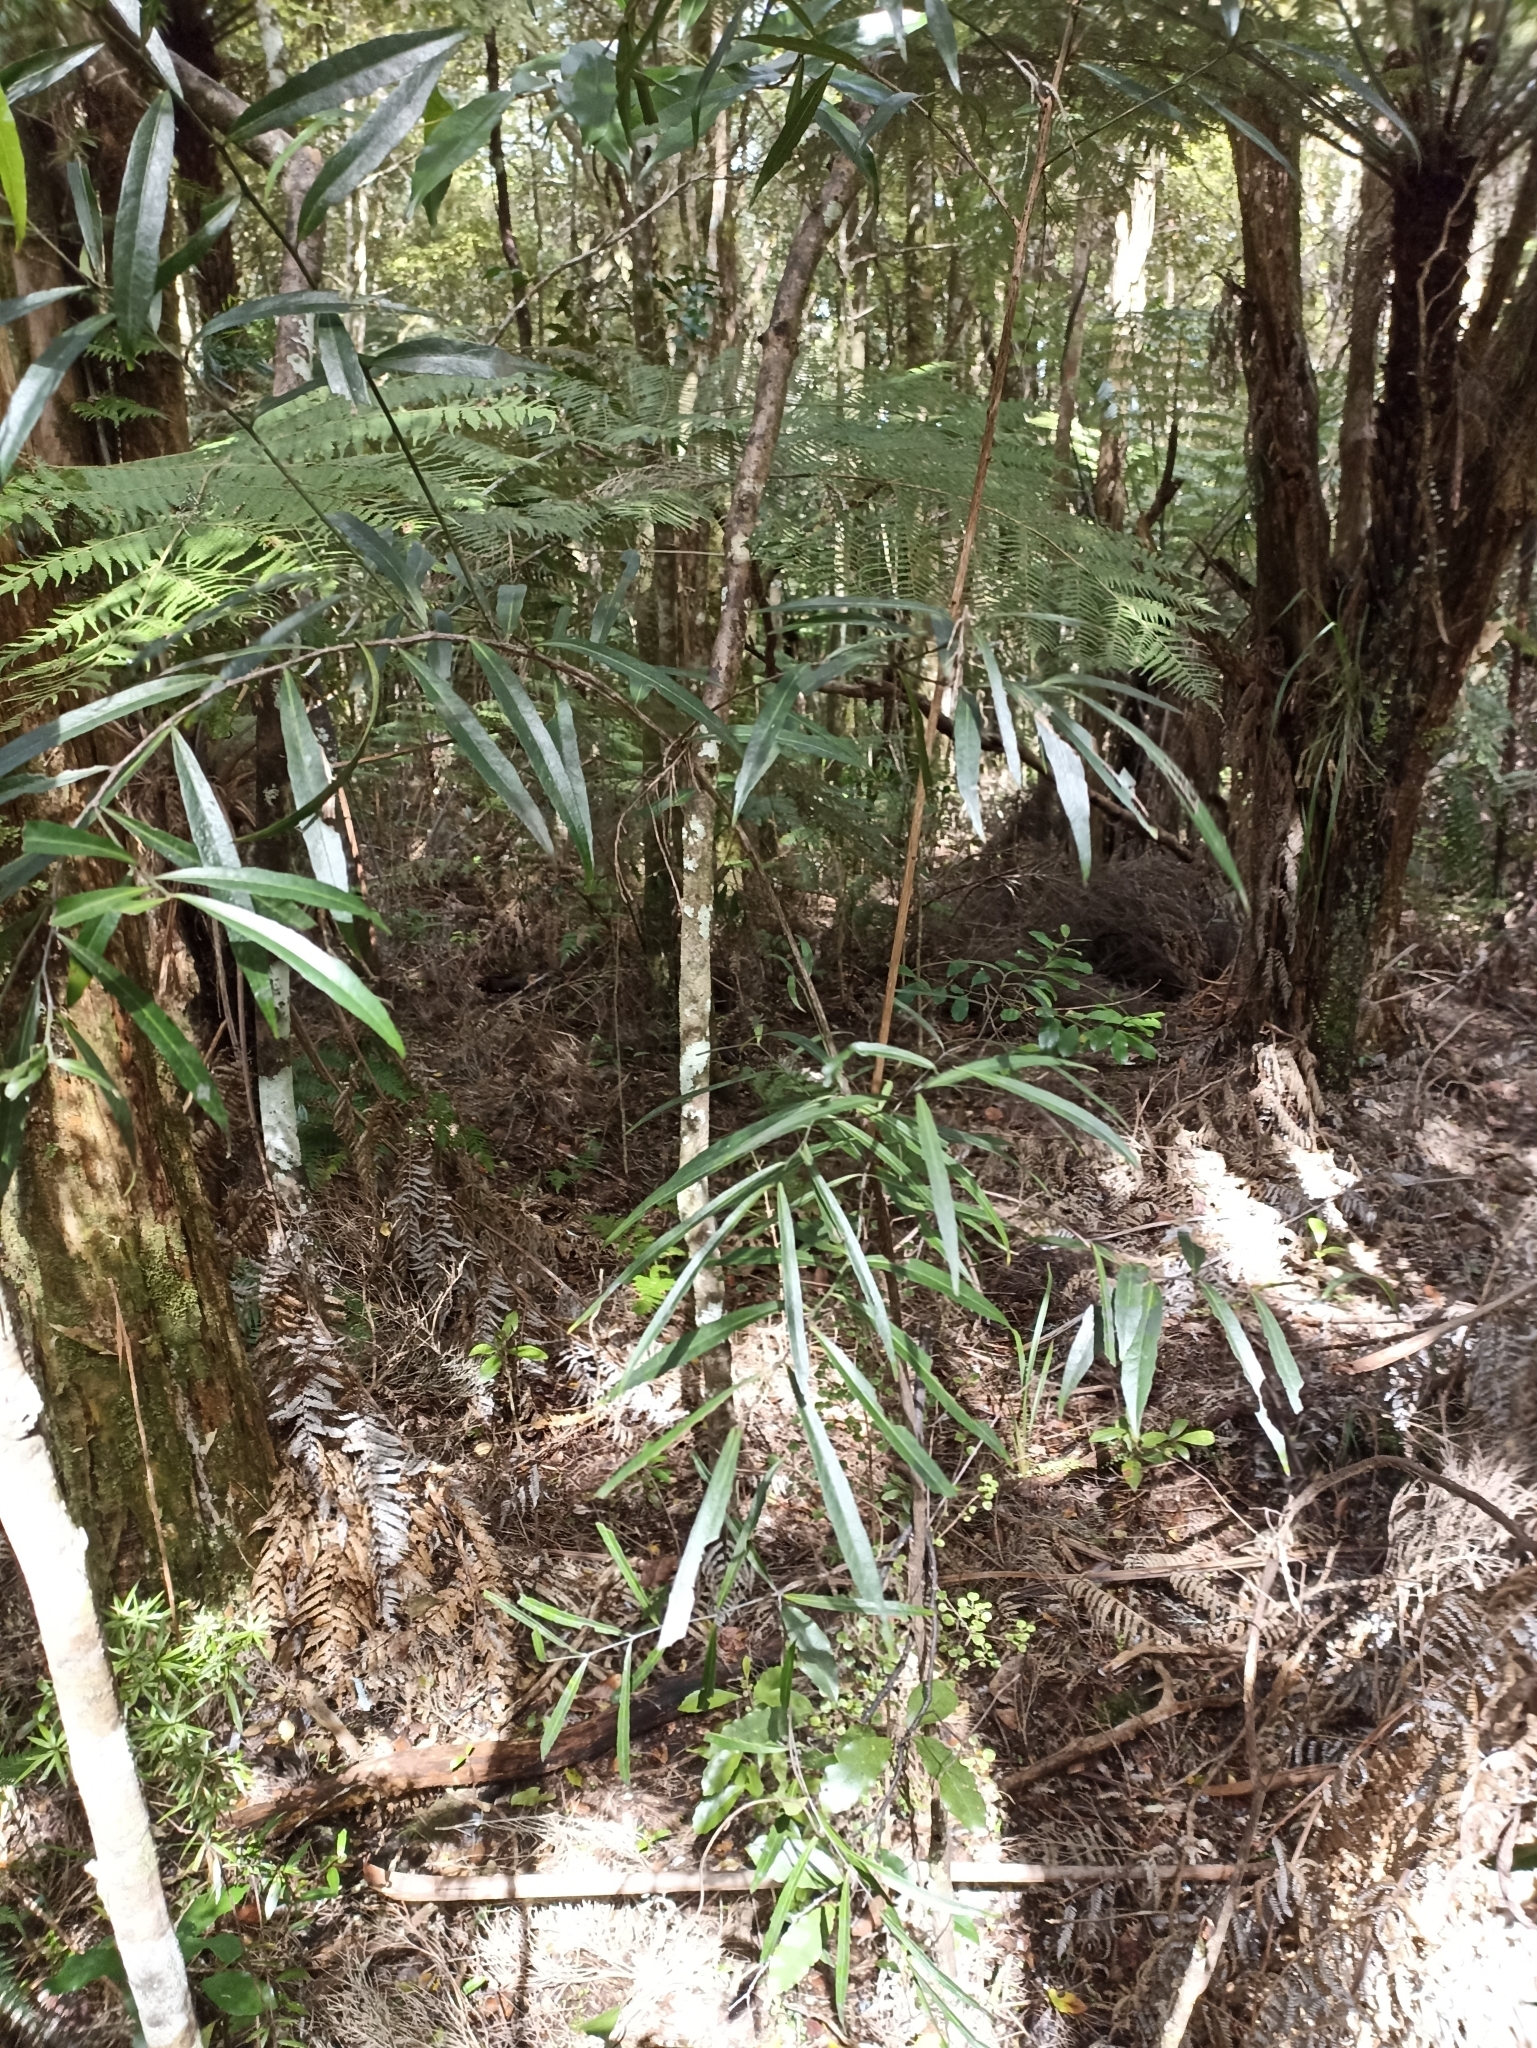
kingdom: Plantae
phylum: Tracheophyta
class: Magnoliopsida
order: Santalales
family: Nanodeaceae
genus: Mida
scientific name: Mida salicifolia
